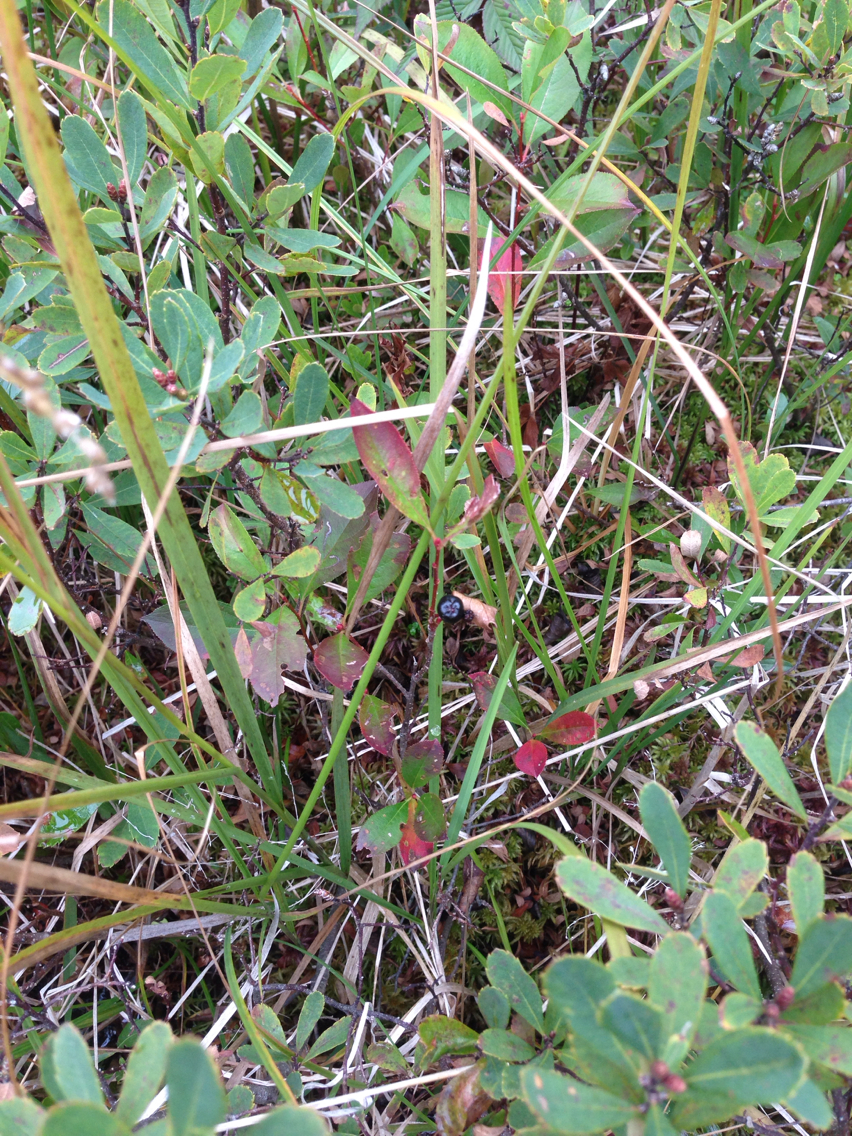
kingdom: Plantae
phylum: Tracheophyta
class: Magnoliopsida
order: Rosales
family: Rosaceae
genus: Aronia
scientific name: Aronia melanocarpa
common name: Black chokeberry
